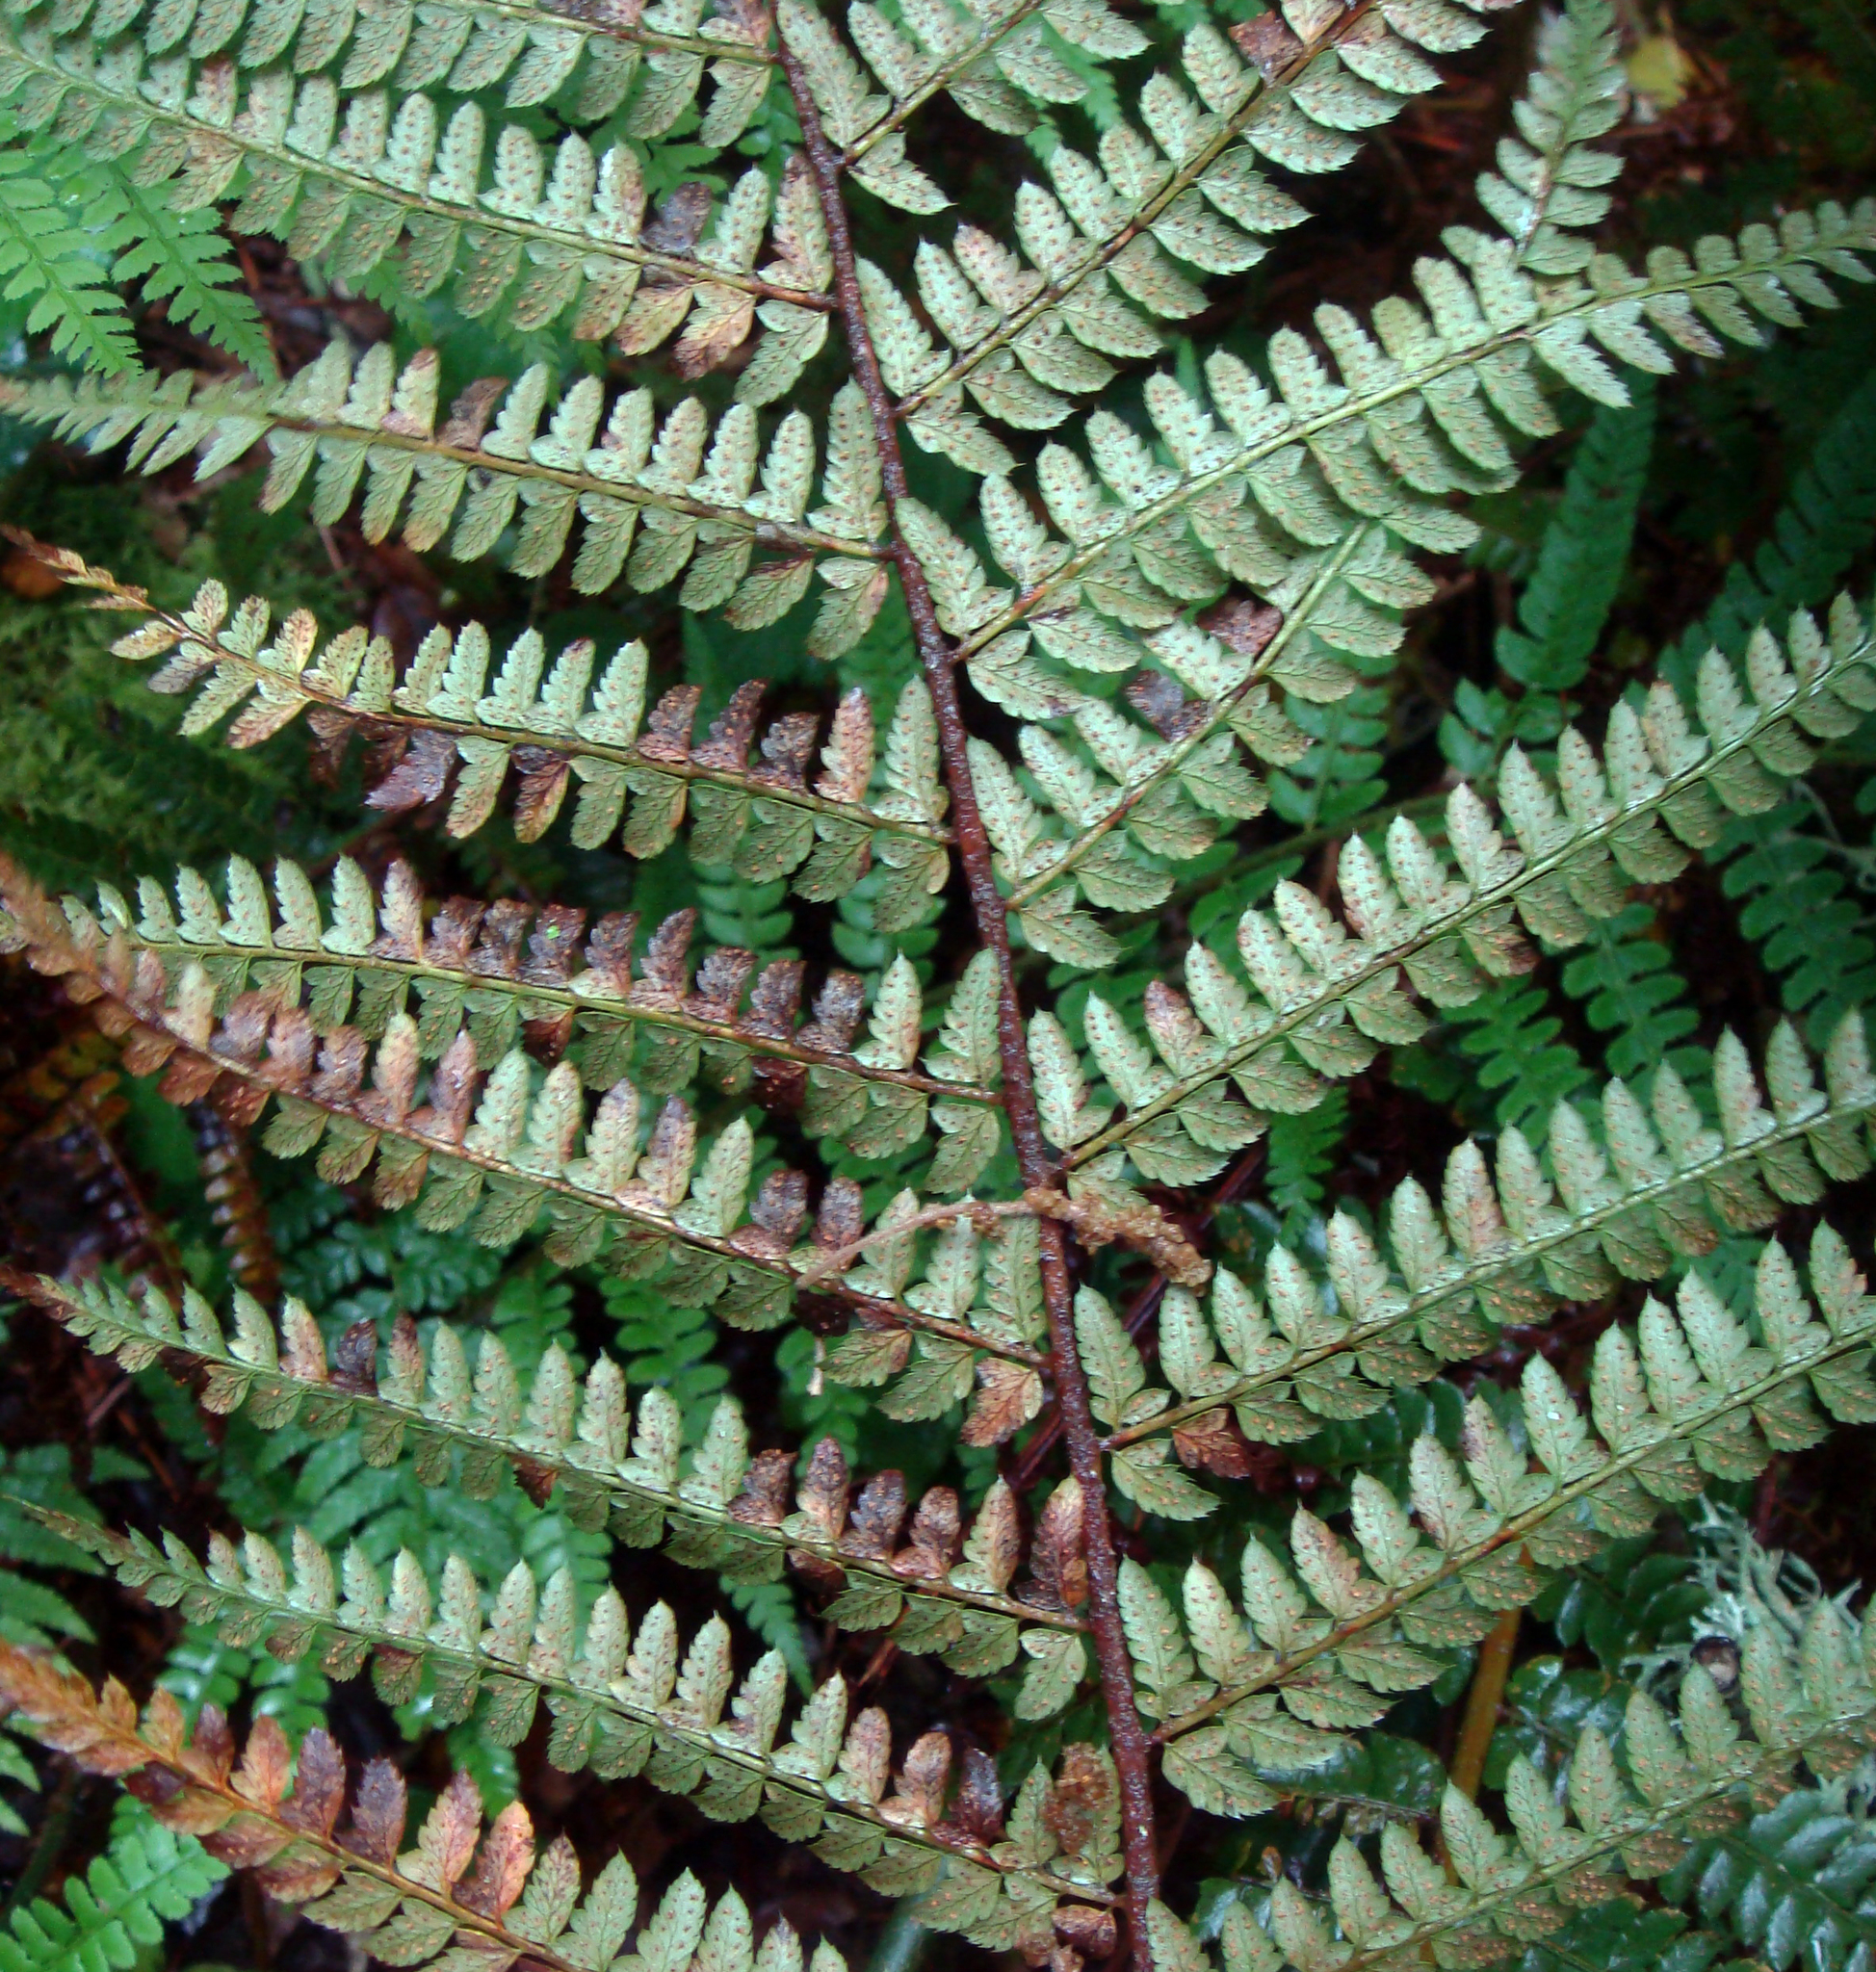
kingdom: Plantae
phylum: Tracheophyta
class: Polypodiopsida
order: Polypodiales
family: Dryopteridaceae
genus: Polystichum
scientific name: Polystichum setiferum
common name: Soft shield-fern
